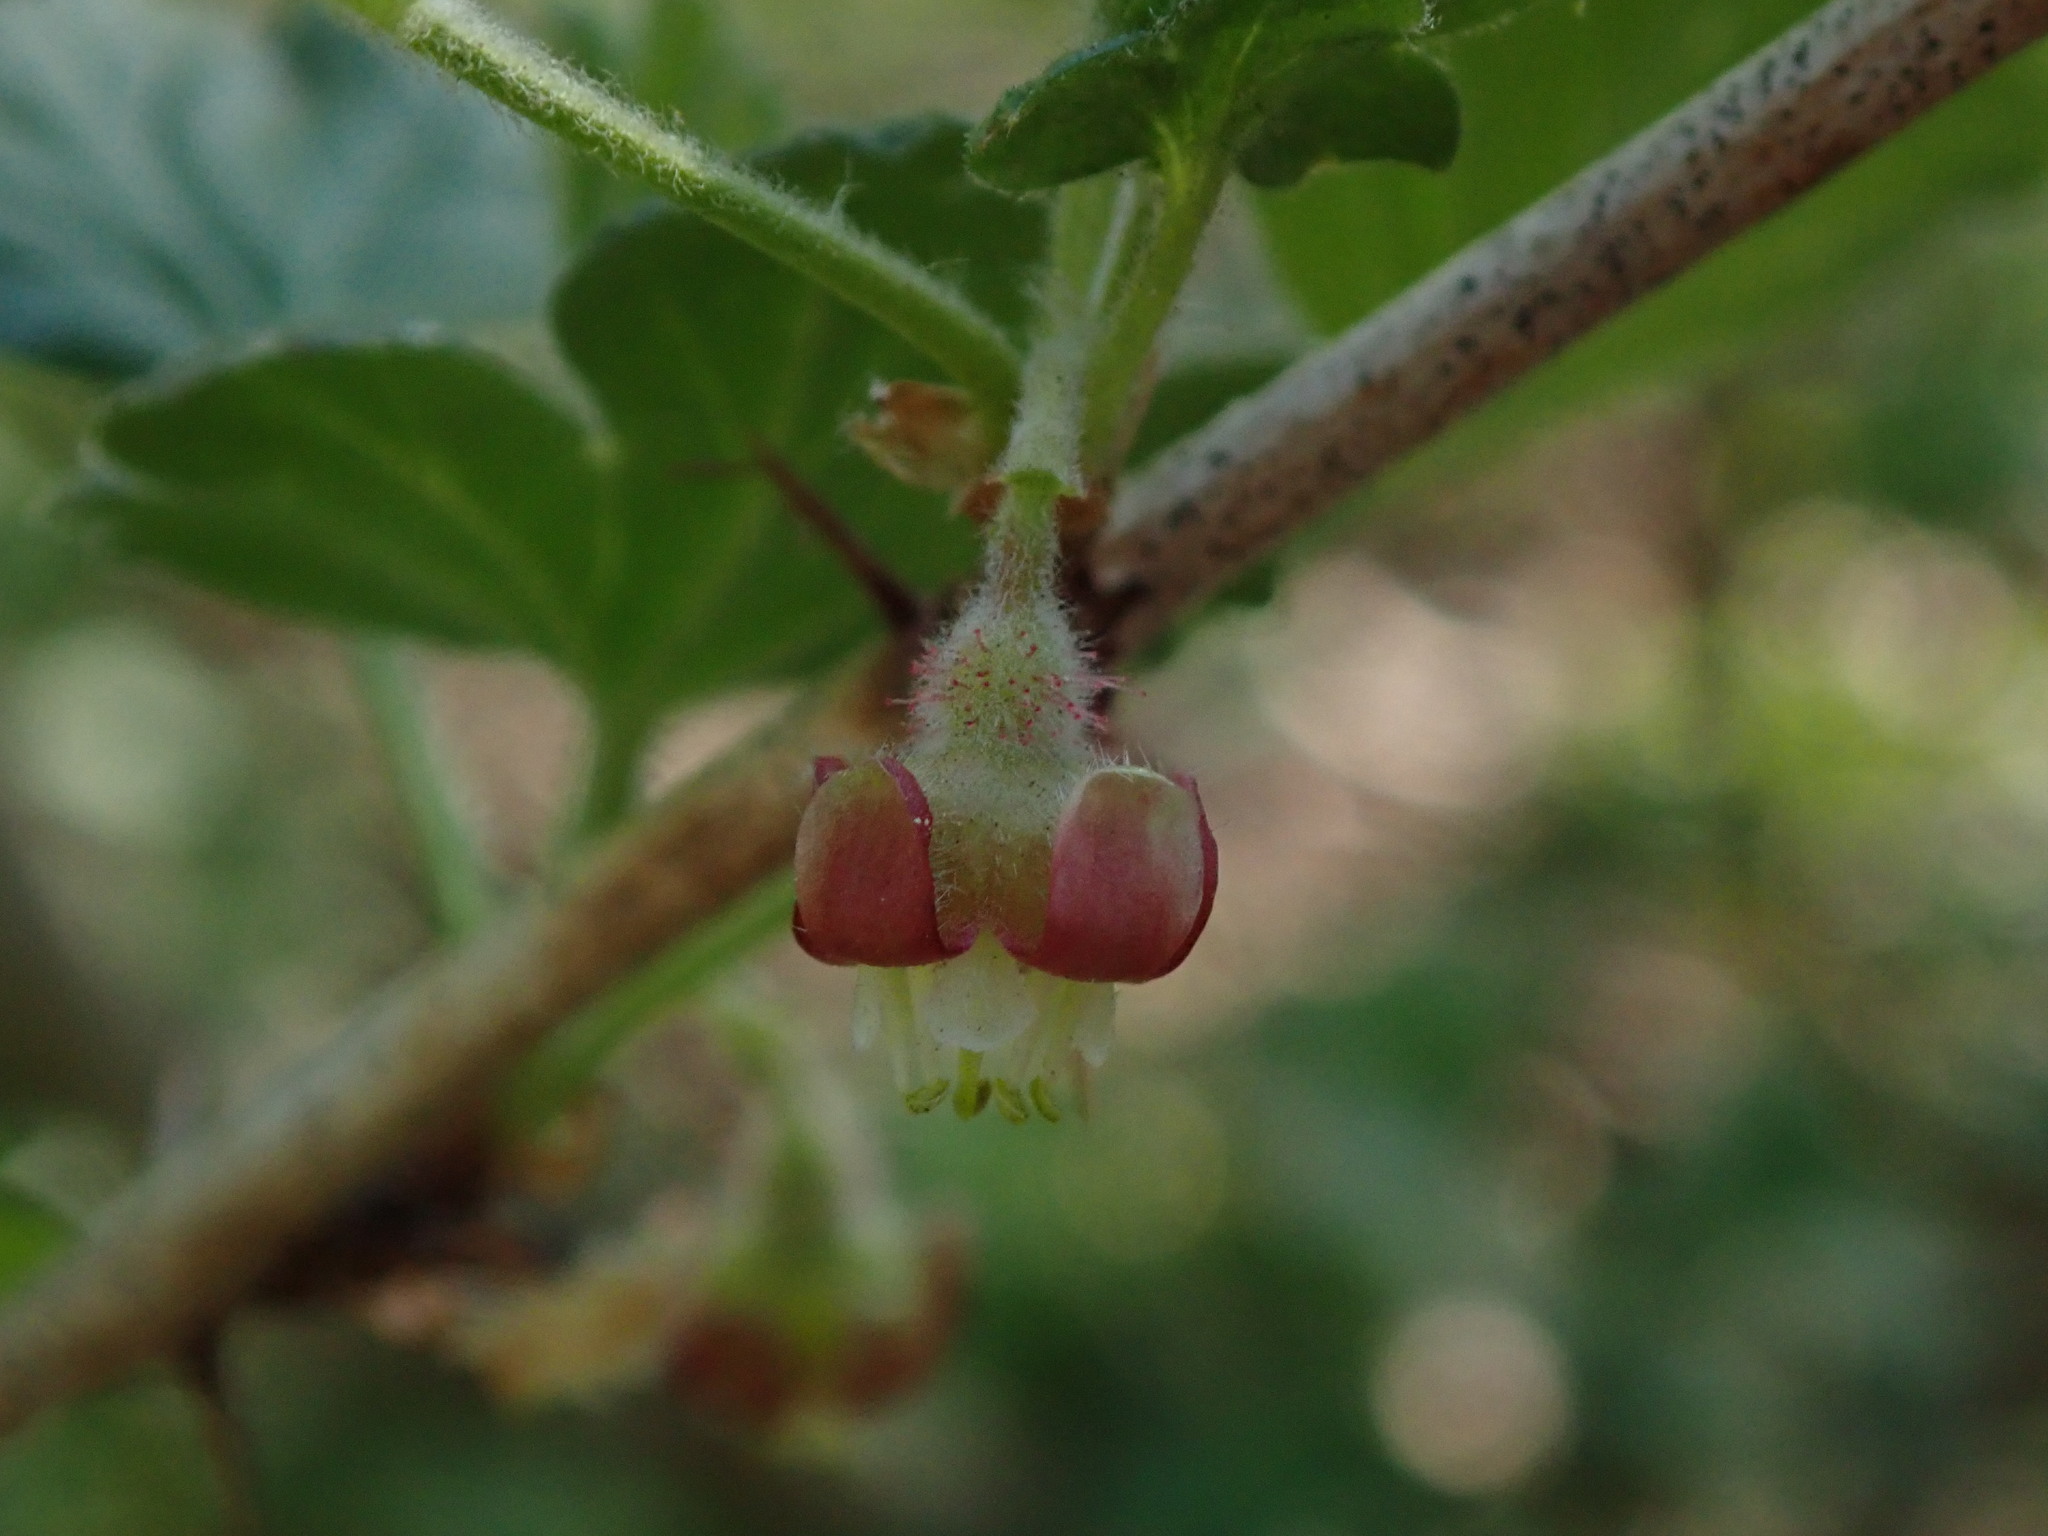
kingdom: Plantae
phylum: Tracheophyta
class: Magnoliopsida
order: Saxifragales
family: Grossulariaceae
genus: Ribes
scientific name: Ribes uva-crispa
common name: Gooseberry
